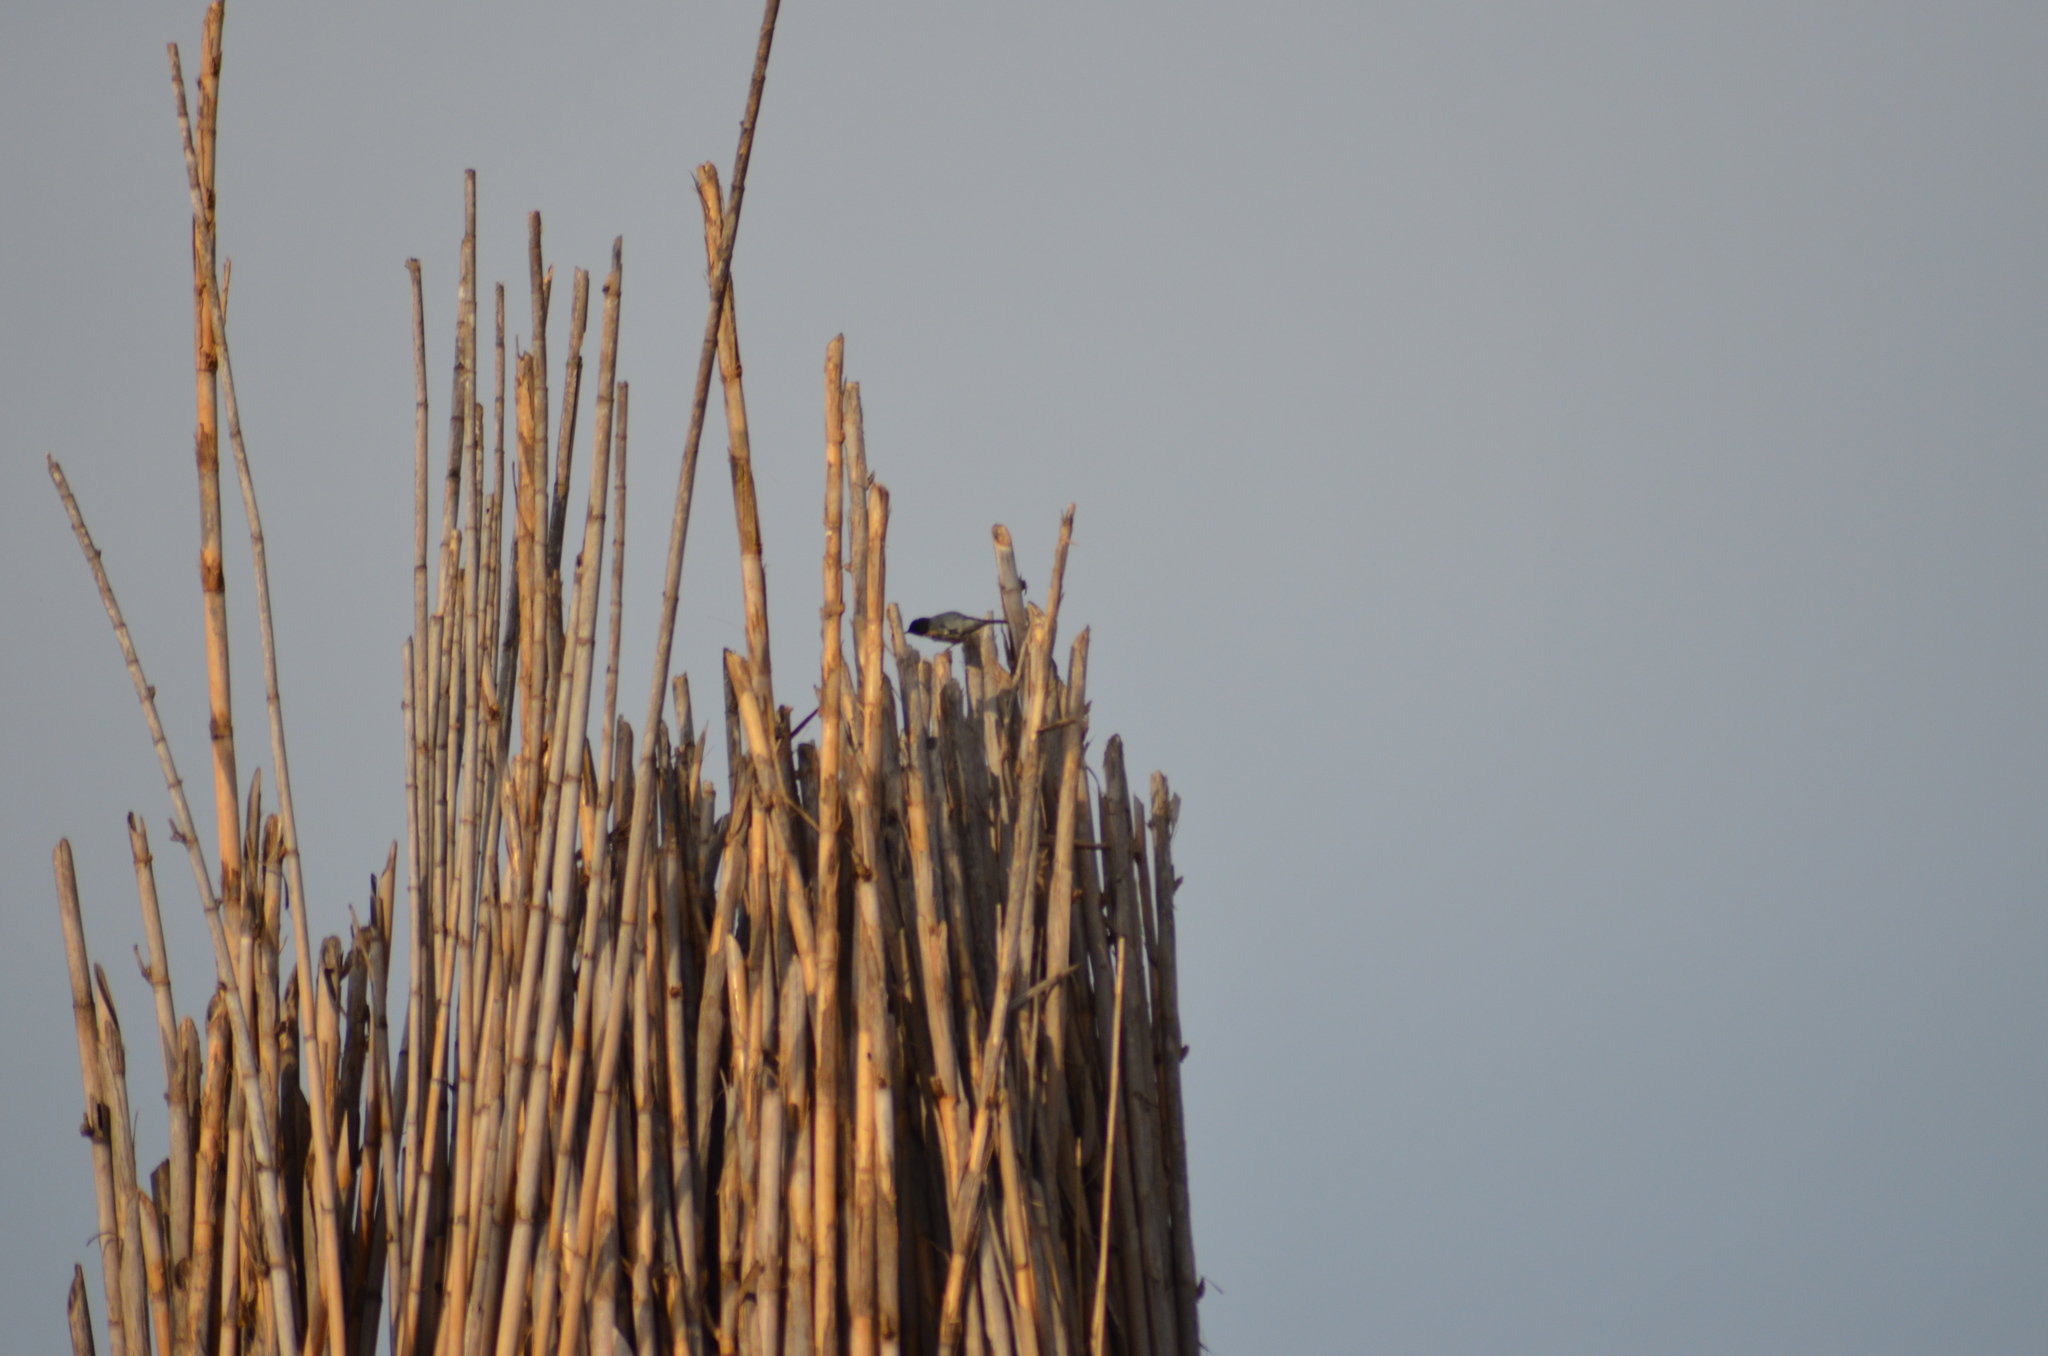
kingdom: Animalia
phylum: Chordata
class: Aves
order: Passeriformes
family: Sylviidae
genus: Curruca
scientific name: Curruca melanocephala
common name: Sardinian warbler
